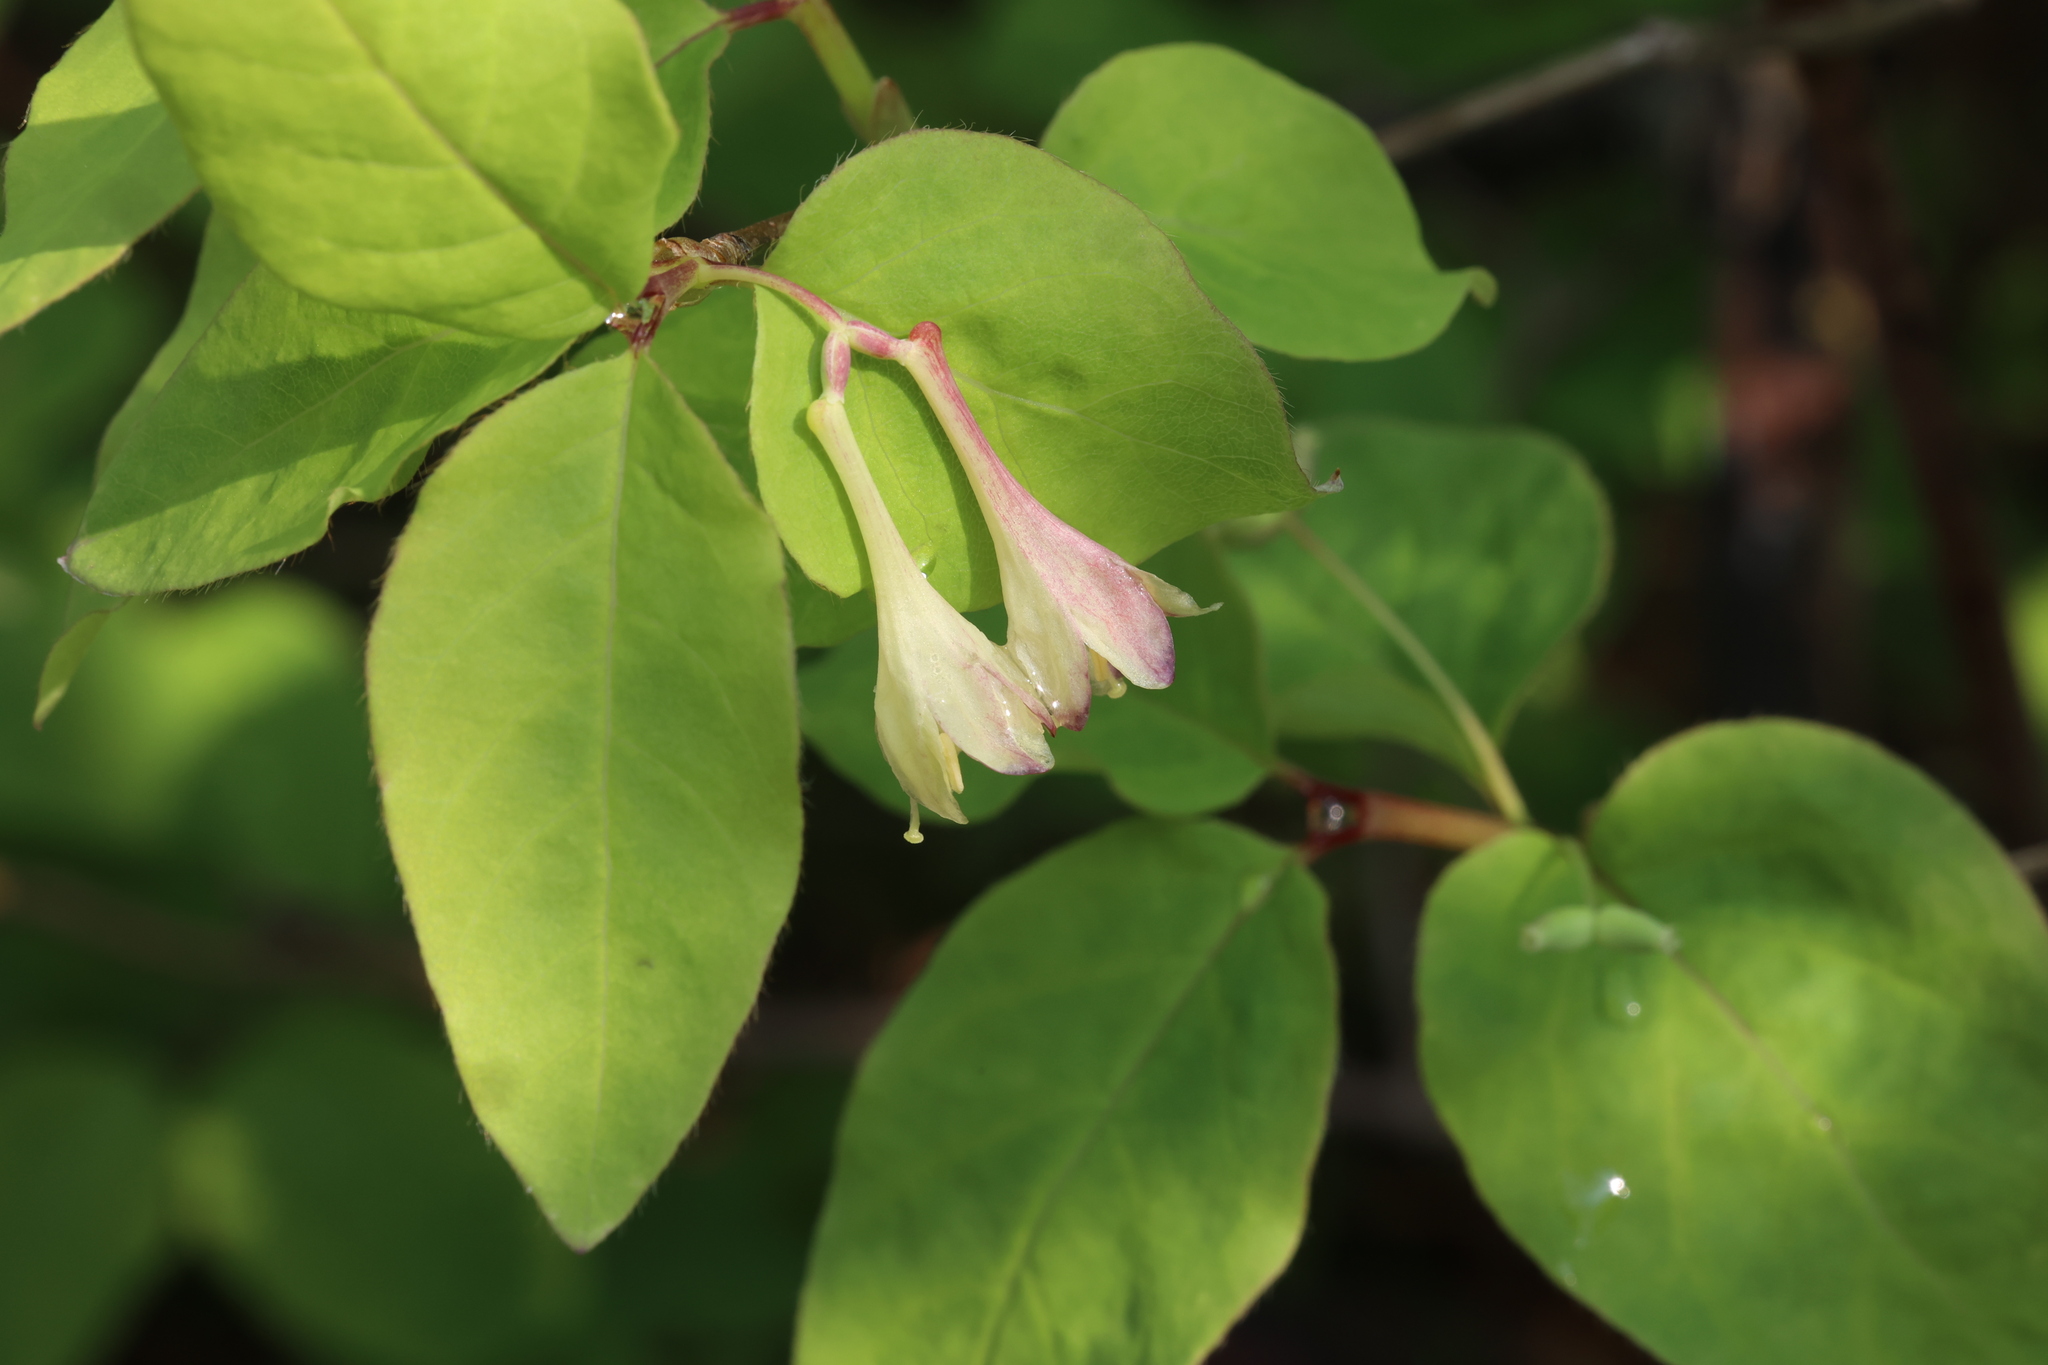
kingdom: Plantae
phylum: Tracheophyta
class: Magnoliopsida
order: Dipsacales
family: Caprifoliaceae
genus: Lonicera
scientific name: Lonicera canadensis
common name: American fly-honeysuckle
